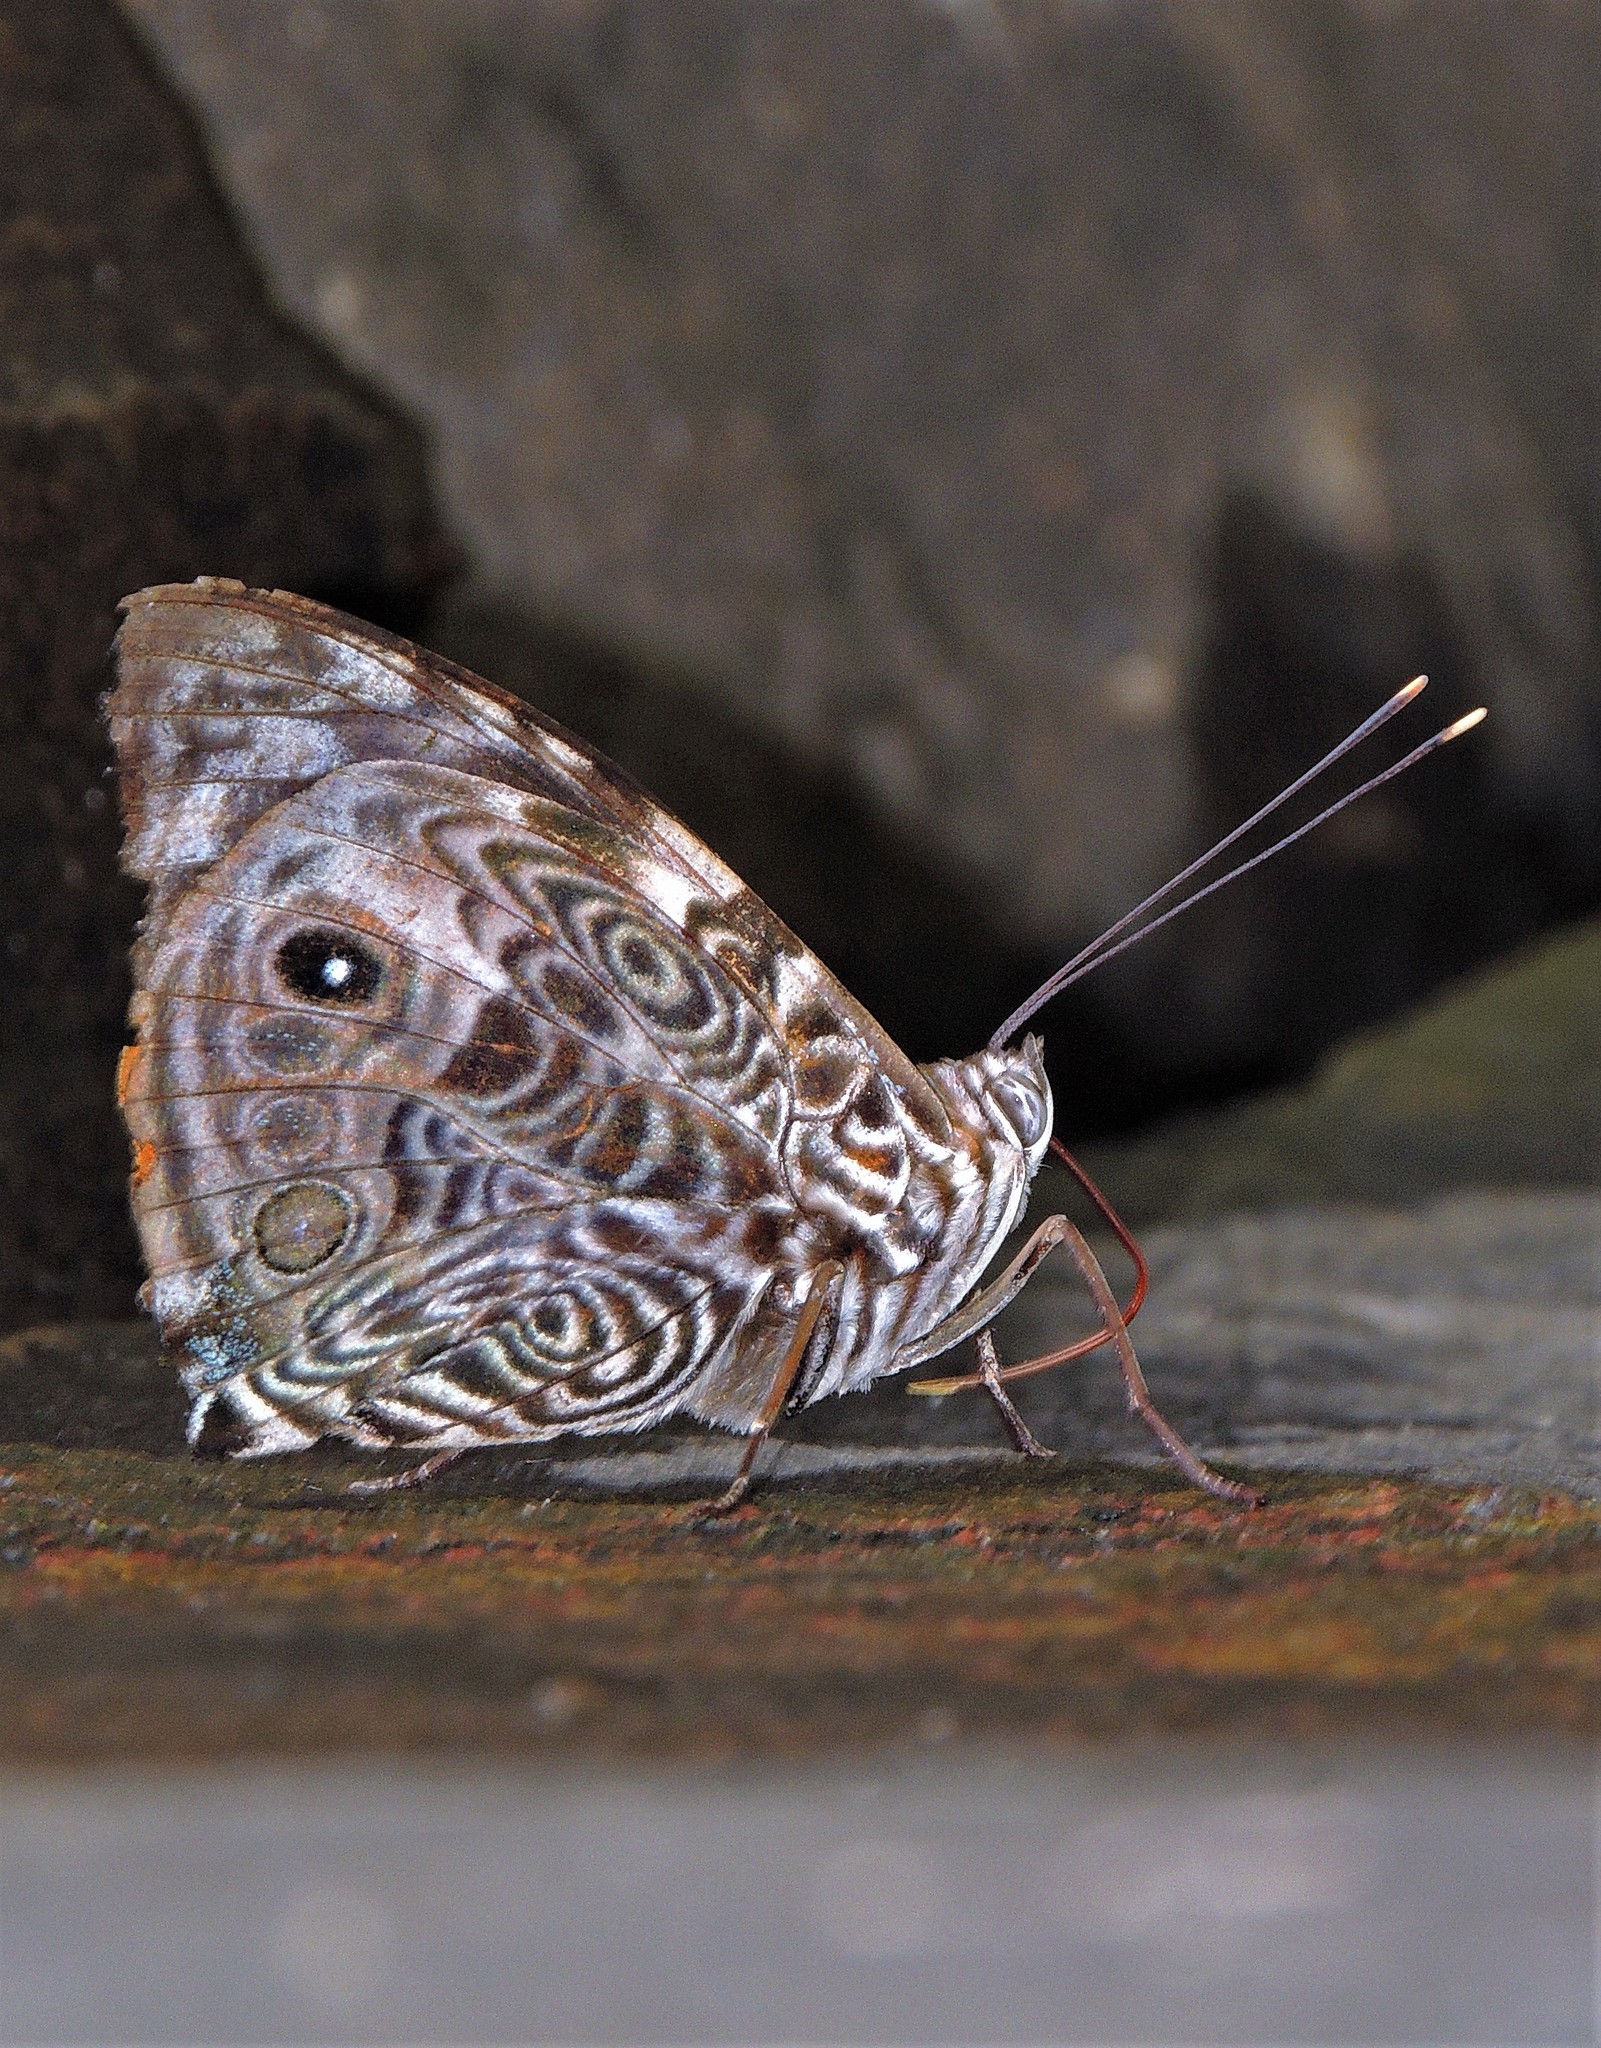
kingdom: Animalia
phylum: Arthropoda
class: Insecta
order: Lepidoptera
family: Nymphalidae
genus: Smyrna
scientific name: Smyrna blomfildia
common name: Blomfild's beauty
